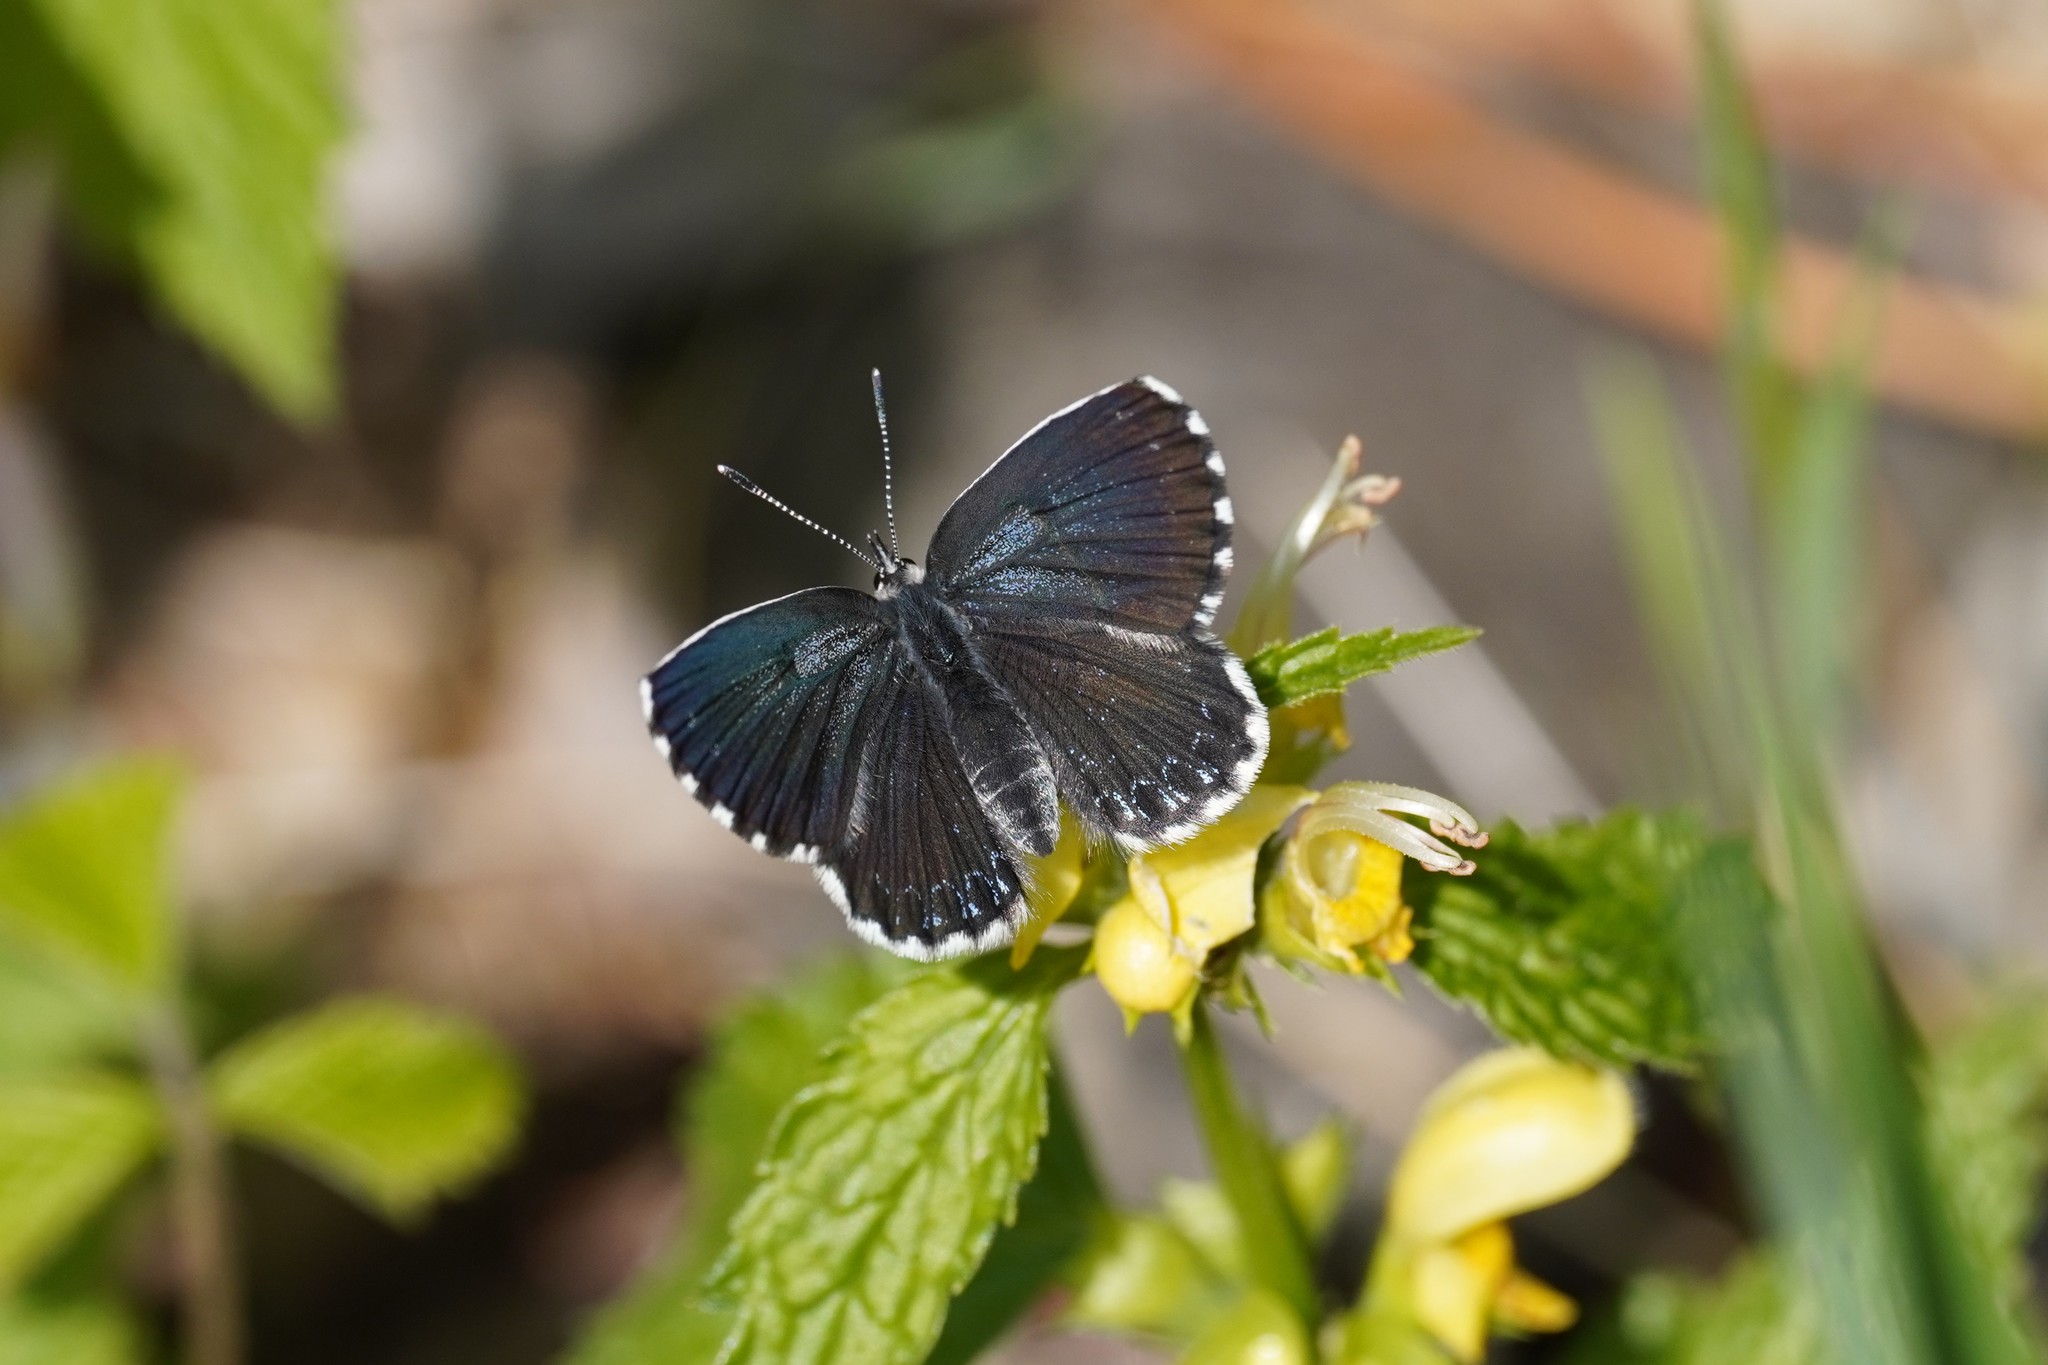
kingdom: Animalia
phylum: Arthropoda
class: Insecta
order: Lepidoptera
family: Lycaenidae
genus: Scolitantides
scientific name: Scolitantides orion
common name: Chequered blue
